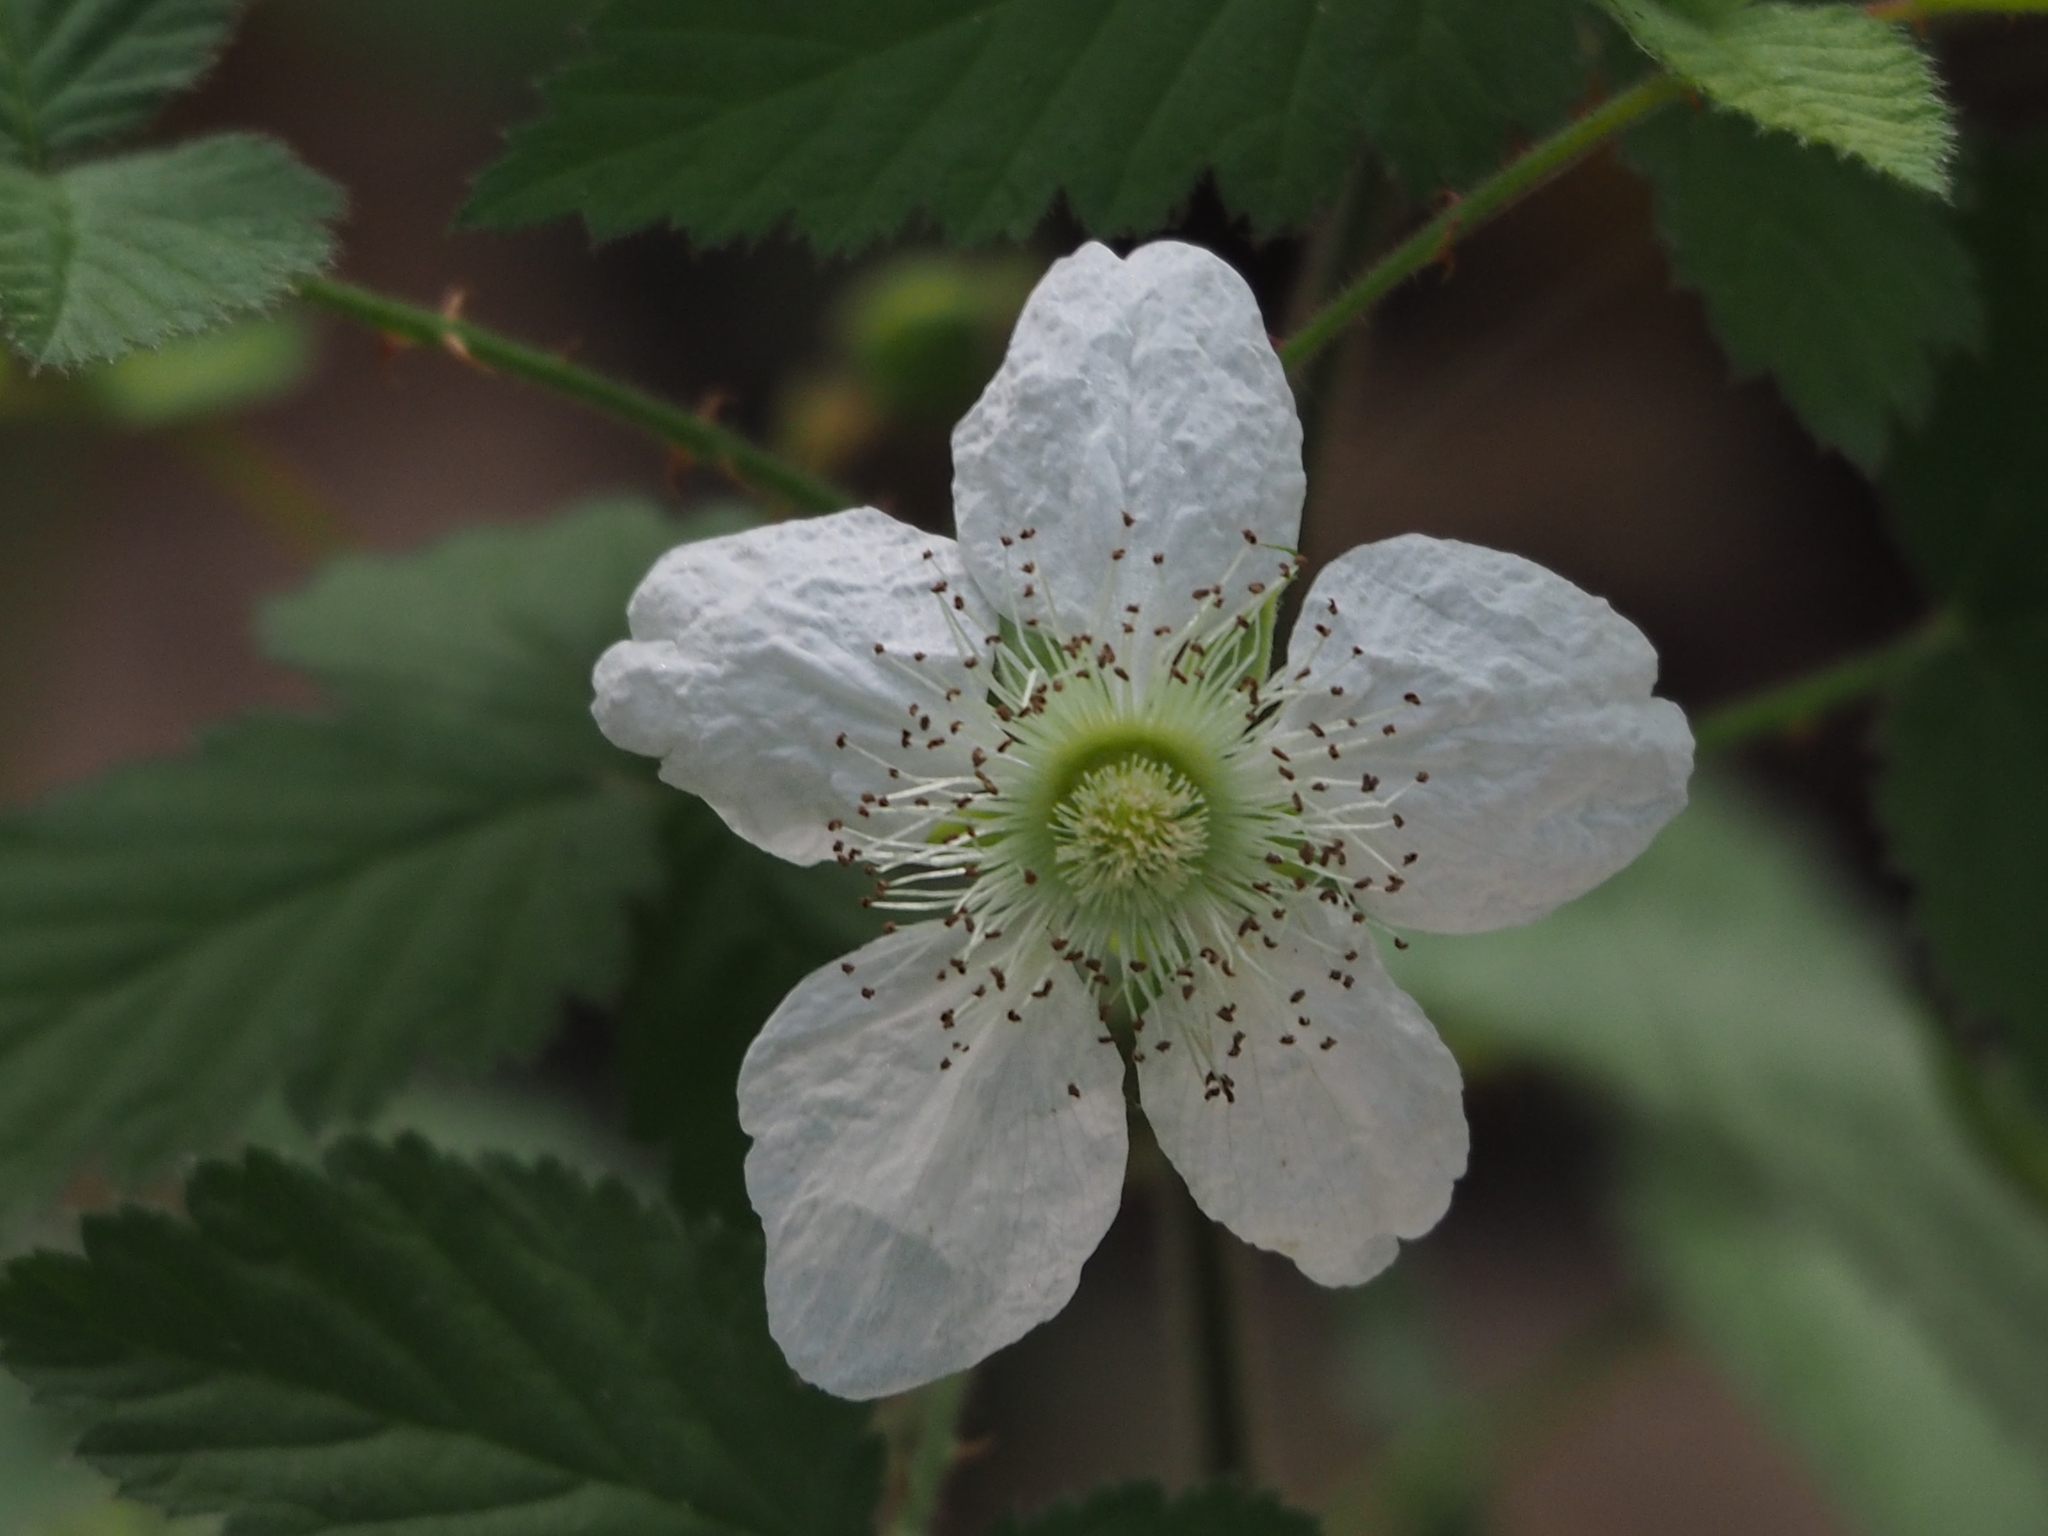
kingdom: Plantae
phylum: Tracheophyta
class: Magnoliopsida
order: Rosales
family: Rosaceae
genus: Rubus
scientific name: Rubus rosifolius
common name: Roseleaf raspberry
